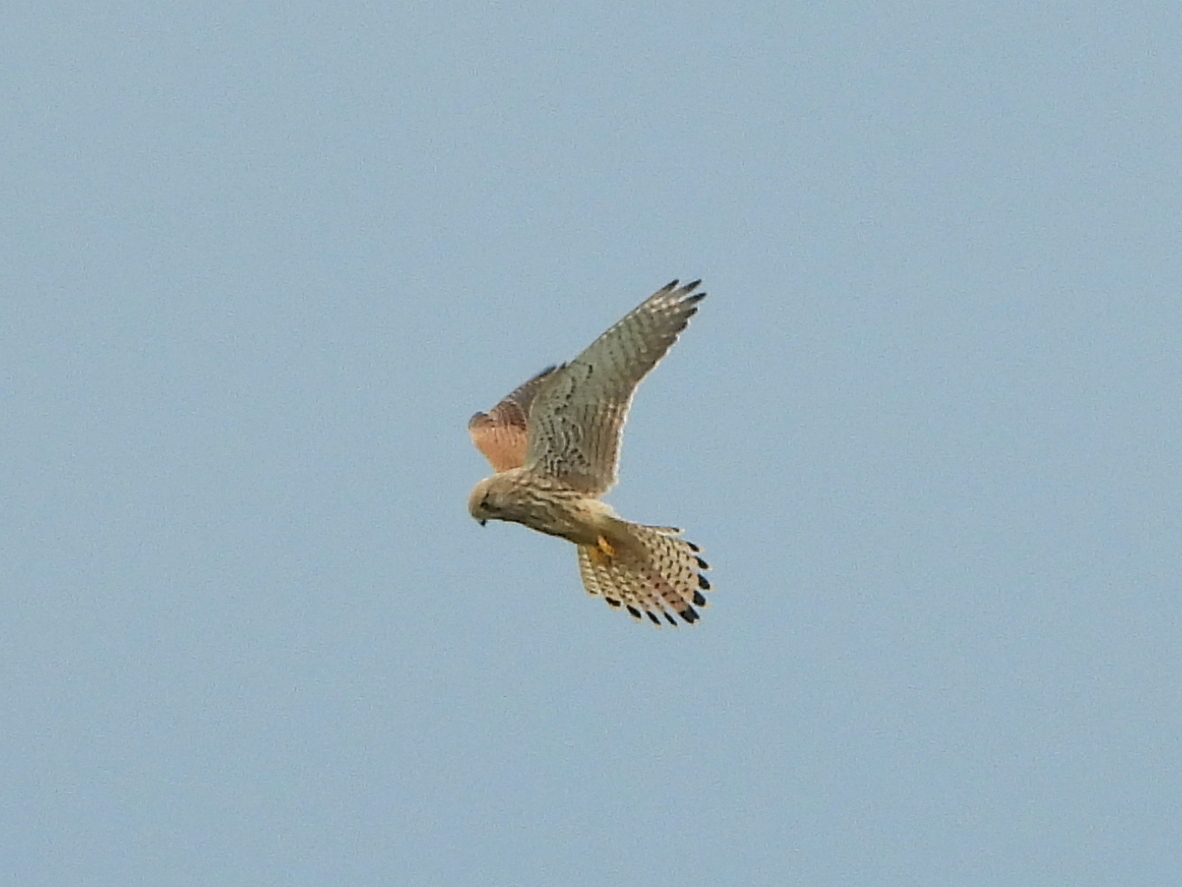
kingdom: Animalia
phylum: Chordata
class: Aves
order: Falconiformes
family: Falconidae
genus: Falco
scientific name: Falco tinnunculus
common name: Common kestrel
